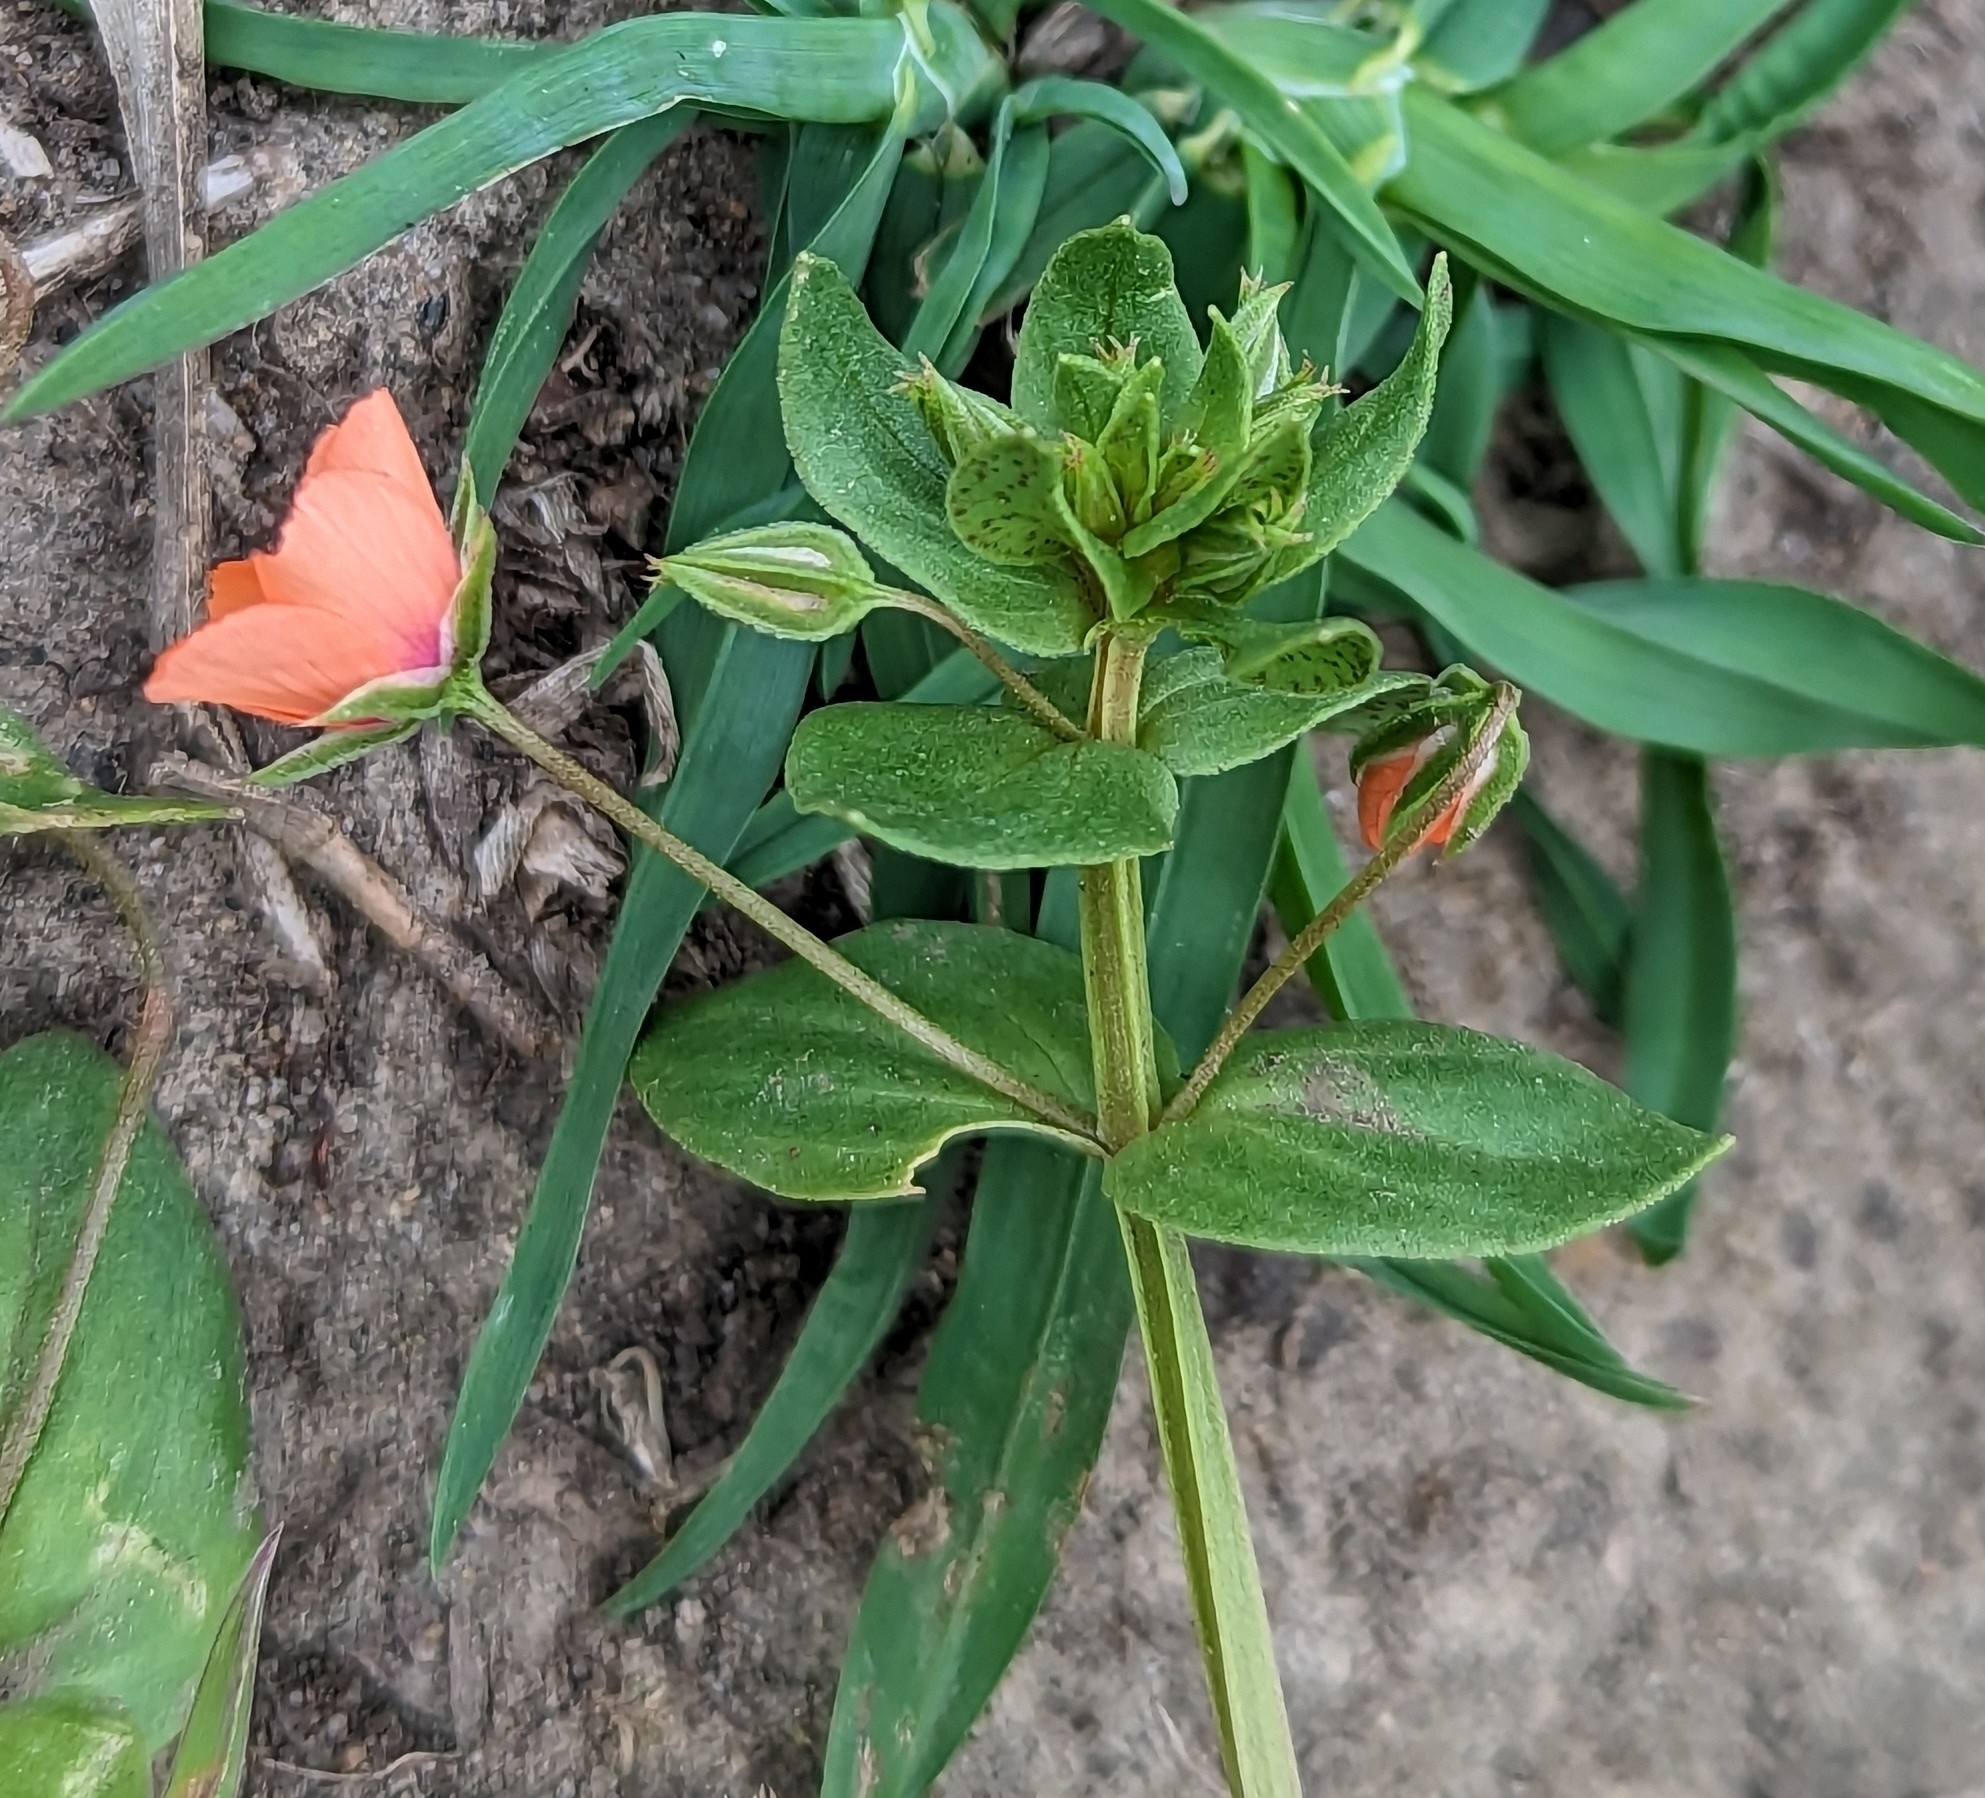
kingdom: Plantae
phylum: Tracheophyta
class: Magnoliopsida
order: Ericales
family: Primulaceae
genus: Lysimachia
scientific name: Lysimachia arvensis
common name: Scarlet pimpernel
